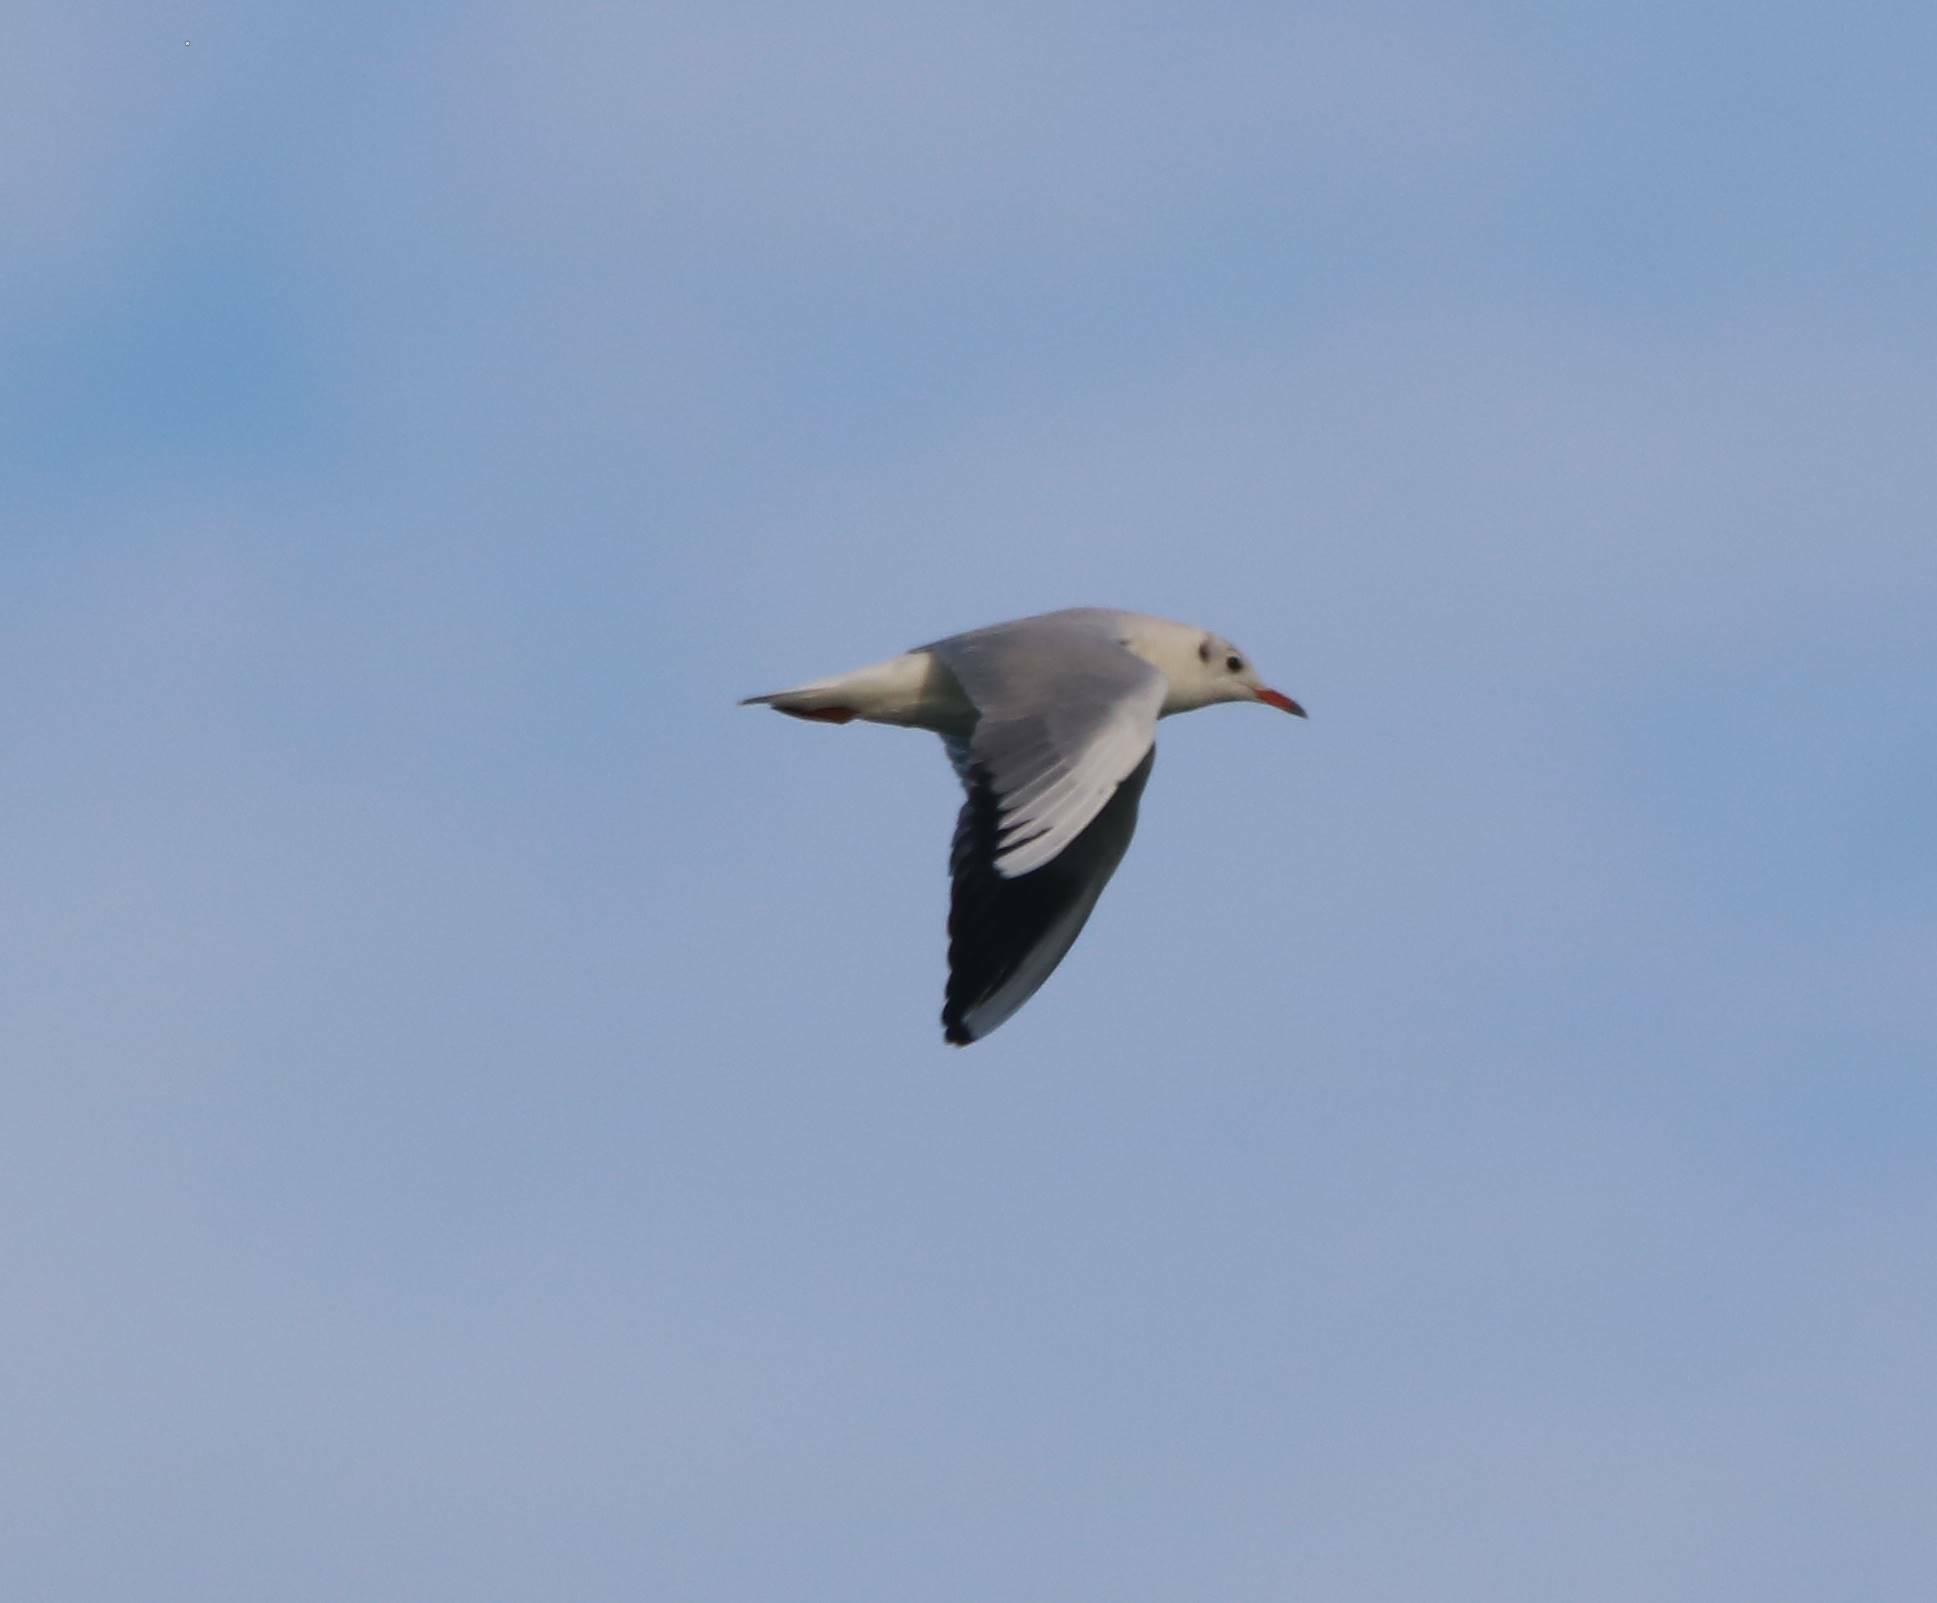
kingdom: Animalia
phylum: Chordata
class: Aves
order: Charadriiformes
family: Laridae
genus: Chroicocephalus
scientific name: Chroicocephalus ridibundus
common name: Black-headed gull
